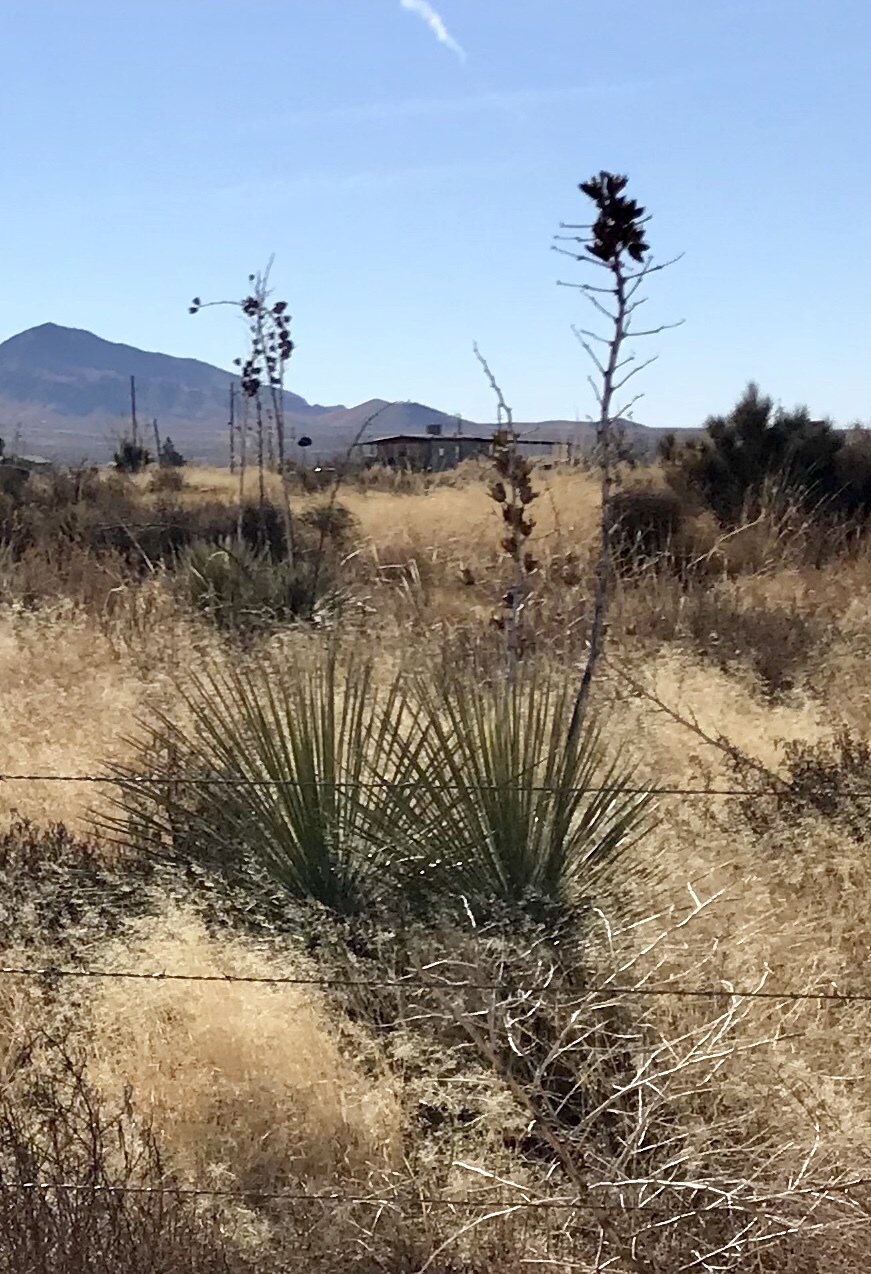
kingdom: Plantae
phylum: Tracheophyta
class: Liliopsida
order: Asparagales
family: Asparagaceae
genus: Yucca
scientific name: Yucca elata
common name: Palmella
